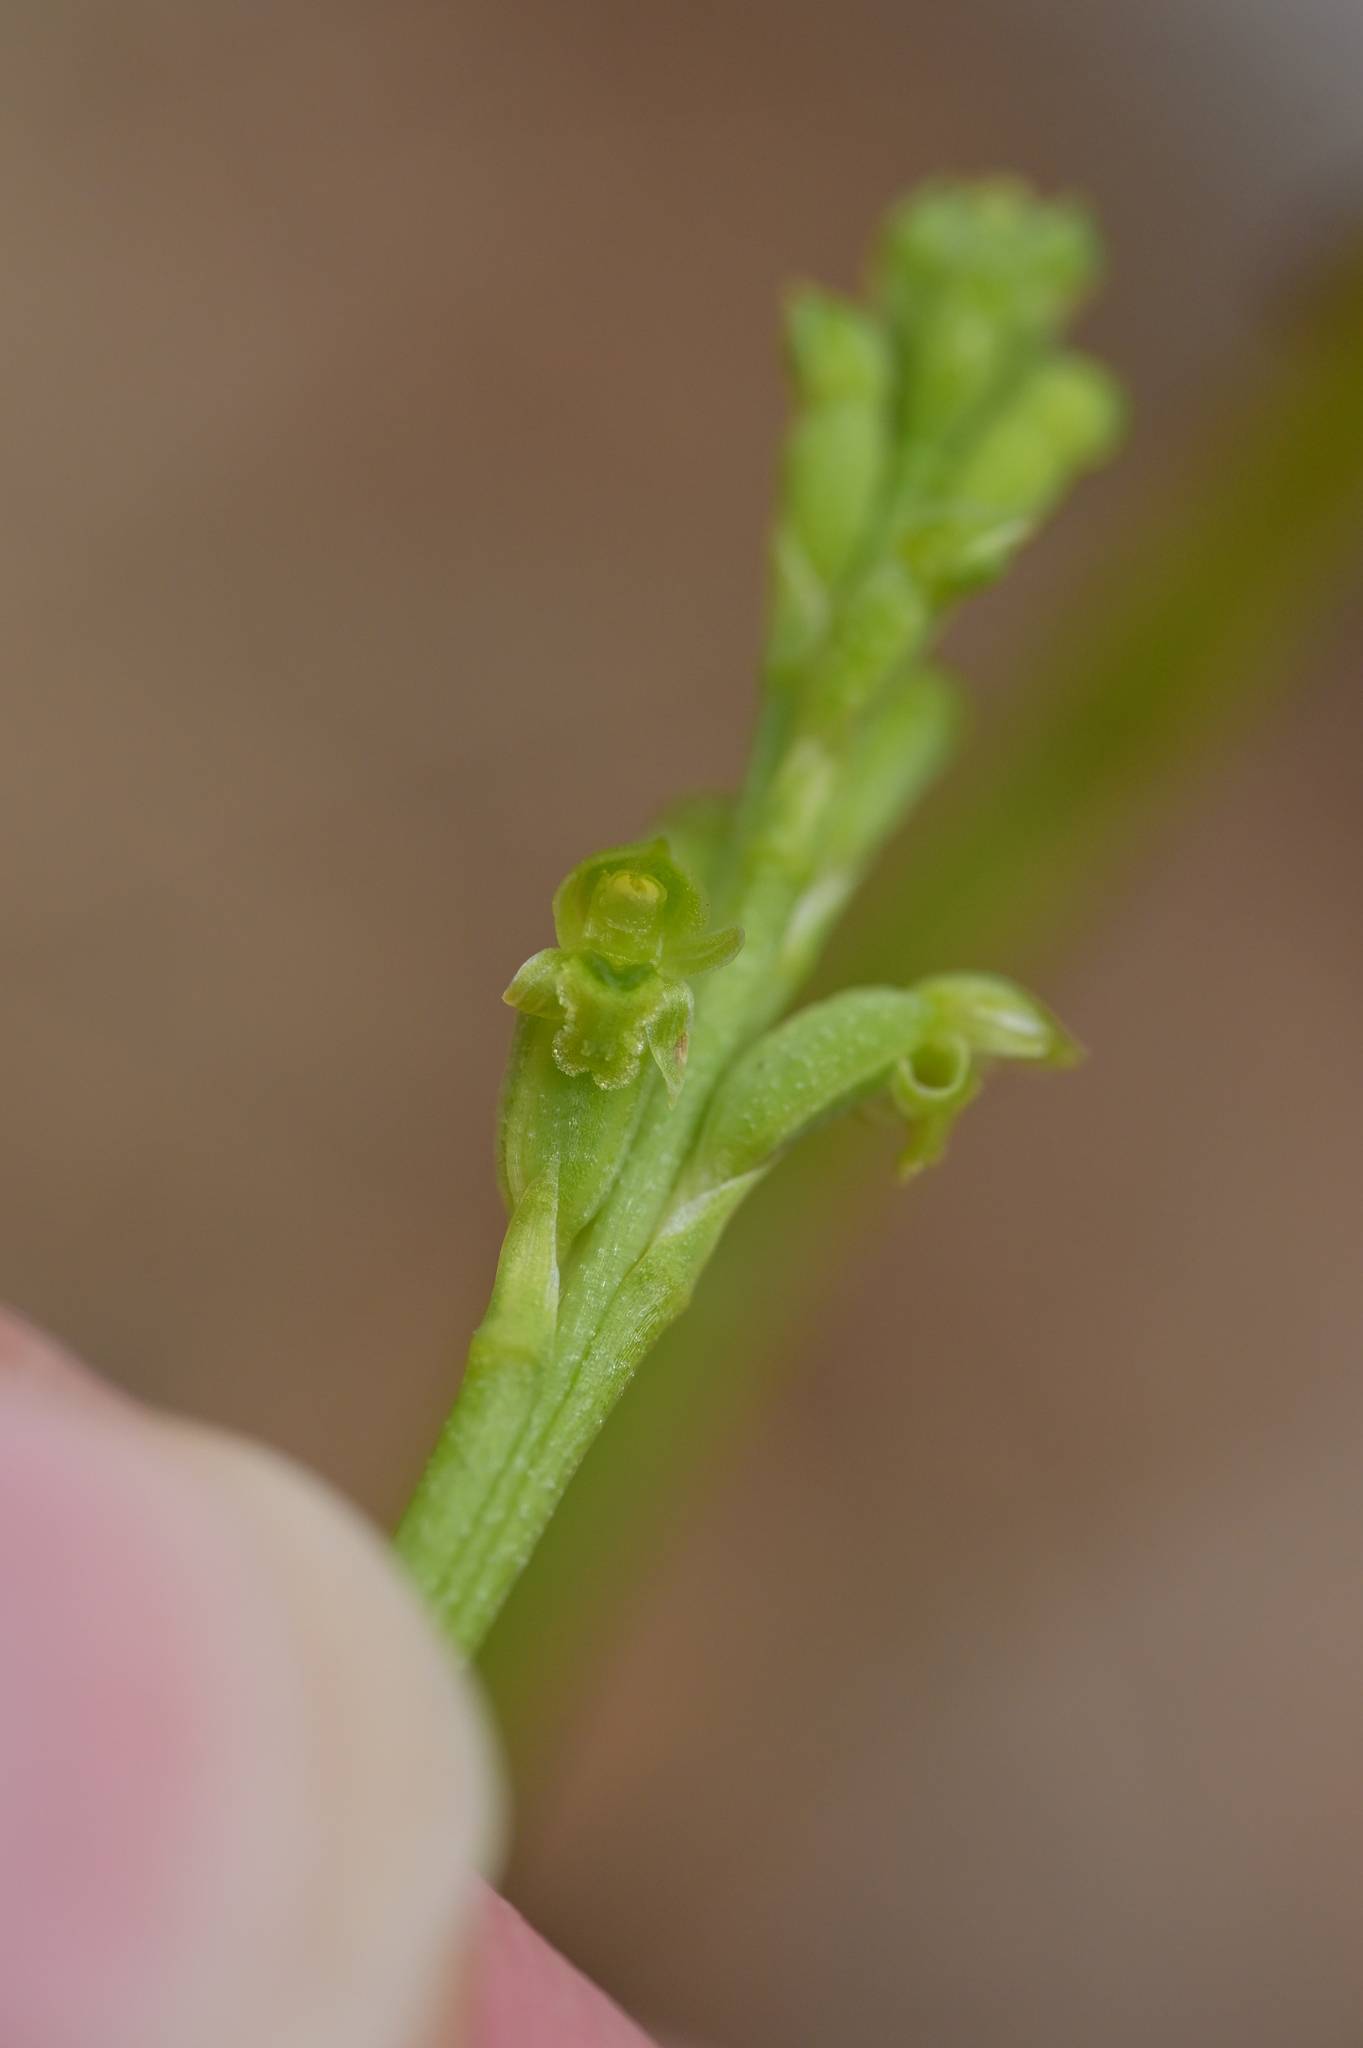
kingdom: Plantae
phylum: Tracheophyta
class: Liliopsida
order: Asparagales
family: Orchidaceae
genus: Microtis
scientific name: Microtis unifolia
